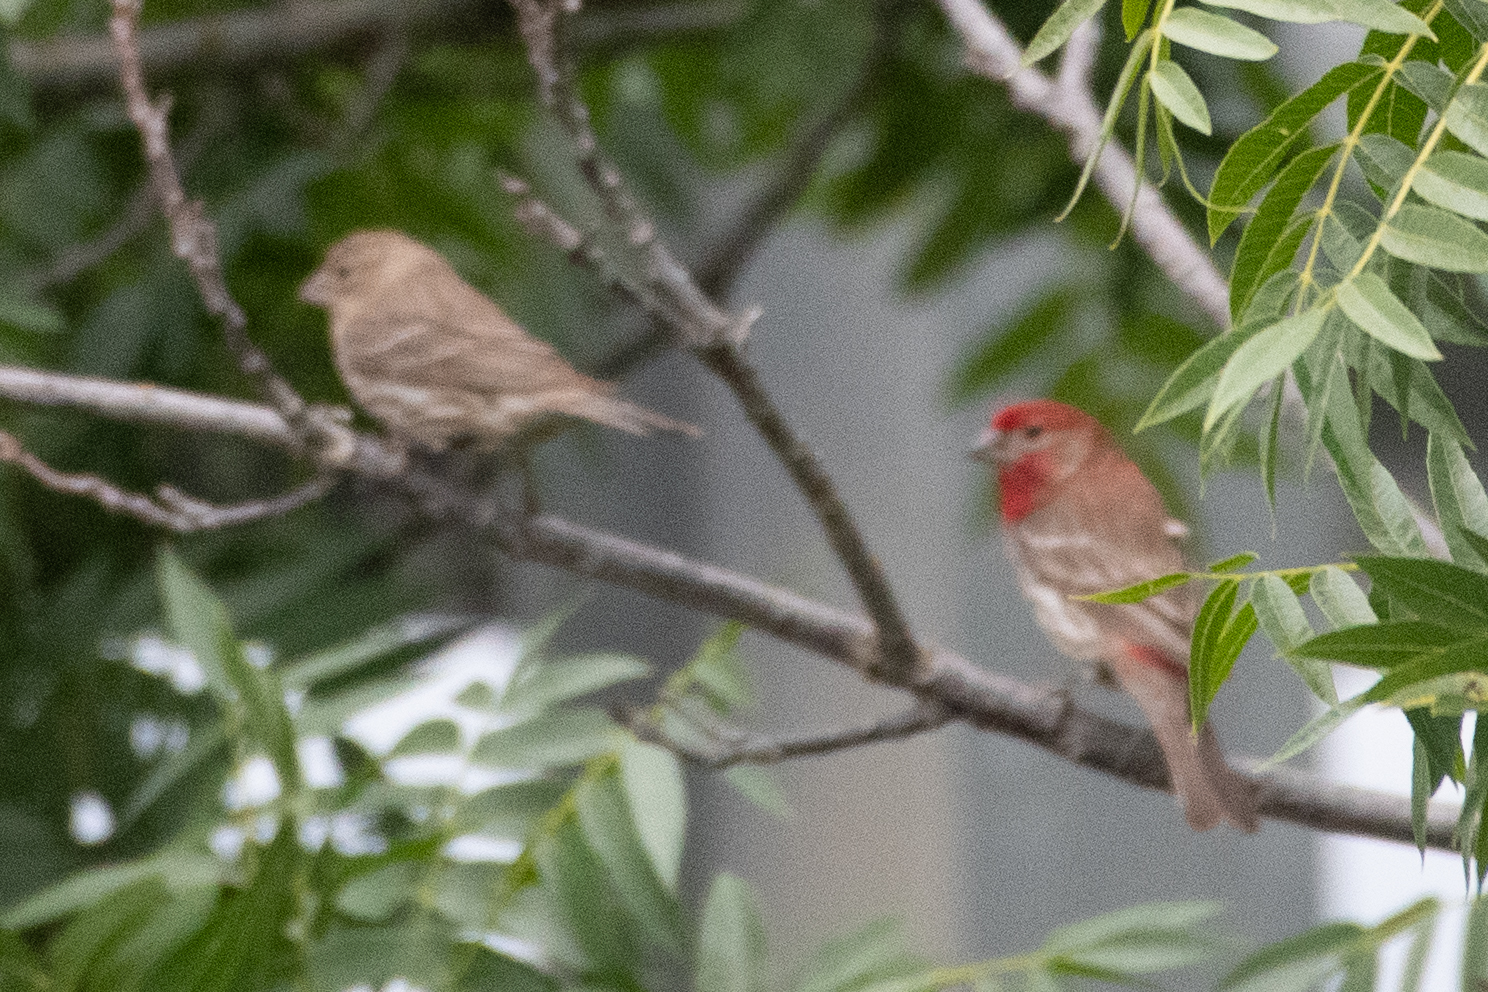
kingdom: Animalia
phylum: Chordata
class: Aves
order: Passeriformes
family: Fringillidae
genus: Haemorhous
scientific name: Haemorhous mexicanus
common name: House finch
